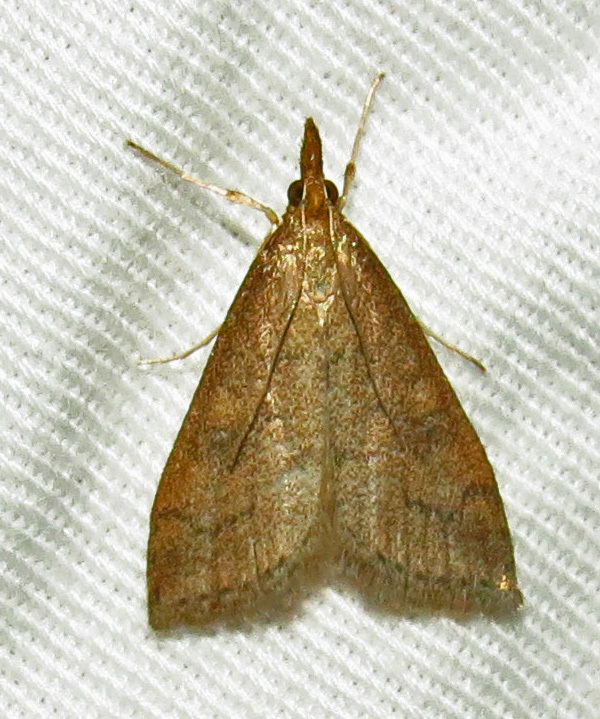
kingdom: Animalia
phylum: Arthropoda
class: Insecta
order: Lepidoptera
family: Crambidae
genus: Udea
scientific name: Udea rubigalis
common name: Celery leaftier moth
